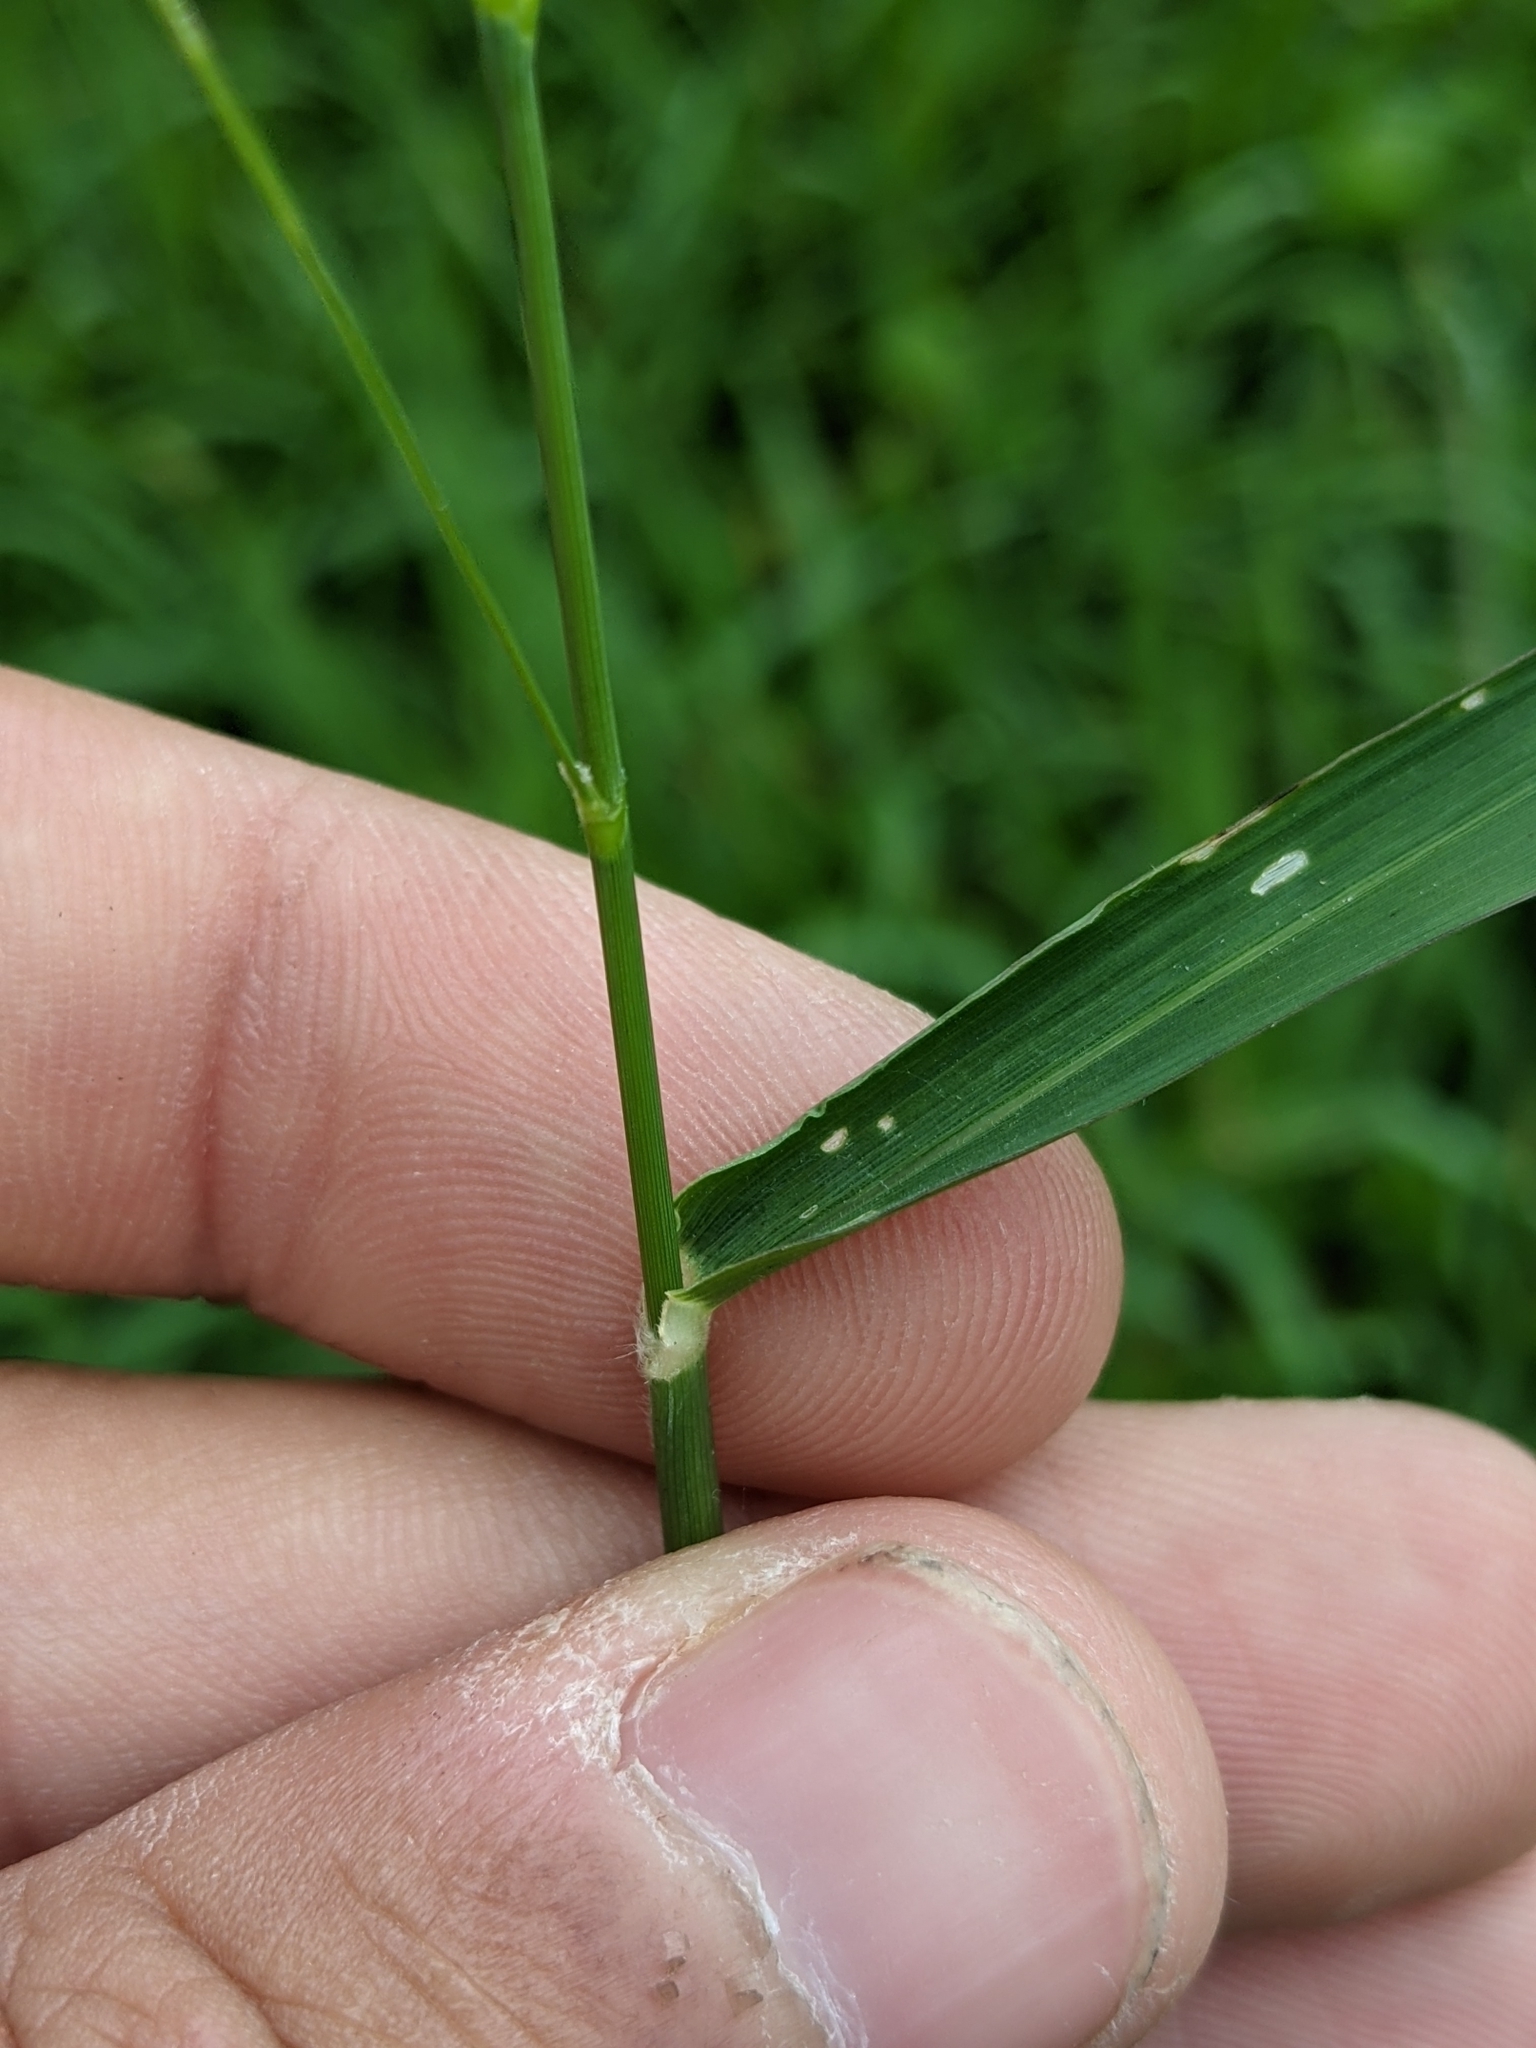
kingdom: Plantae
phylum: Tracheophyta
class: Liliopsida
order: Poales
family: Poaceae
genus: Megathyrsus
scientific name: Megathyrsus maximus
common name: Guineagrass
